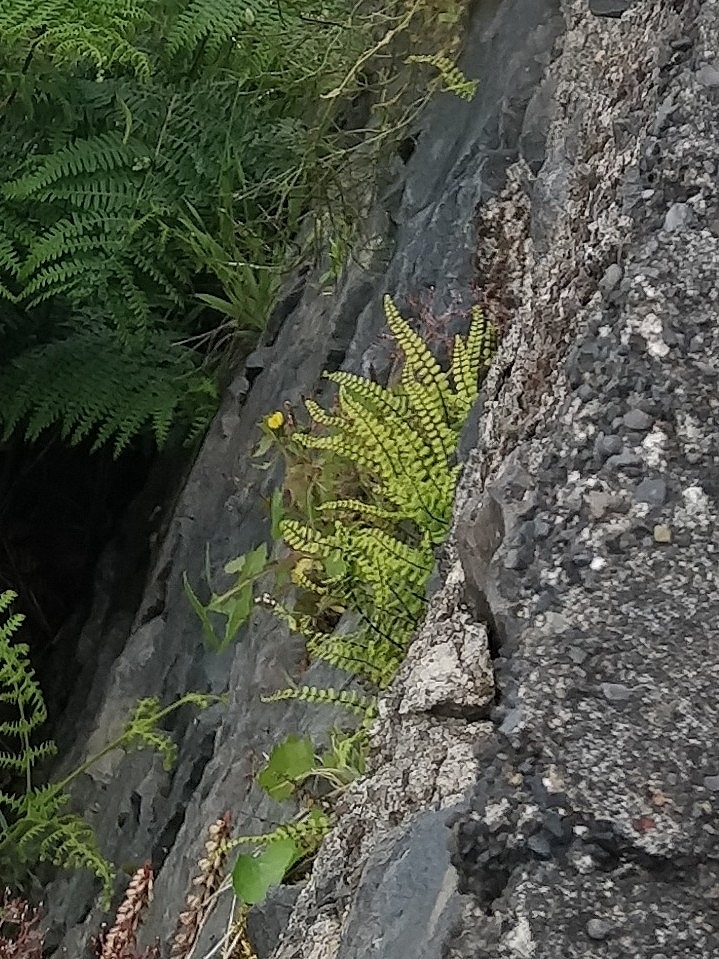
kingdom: Plantae
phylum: Tracheophyta
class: Polypodiopsida
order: Polypodiales
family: Aspleniaceae
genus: Asplenium
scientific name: Asplenium trichomanes
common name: Maidenhair spleenwort
